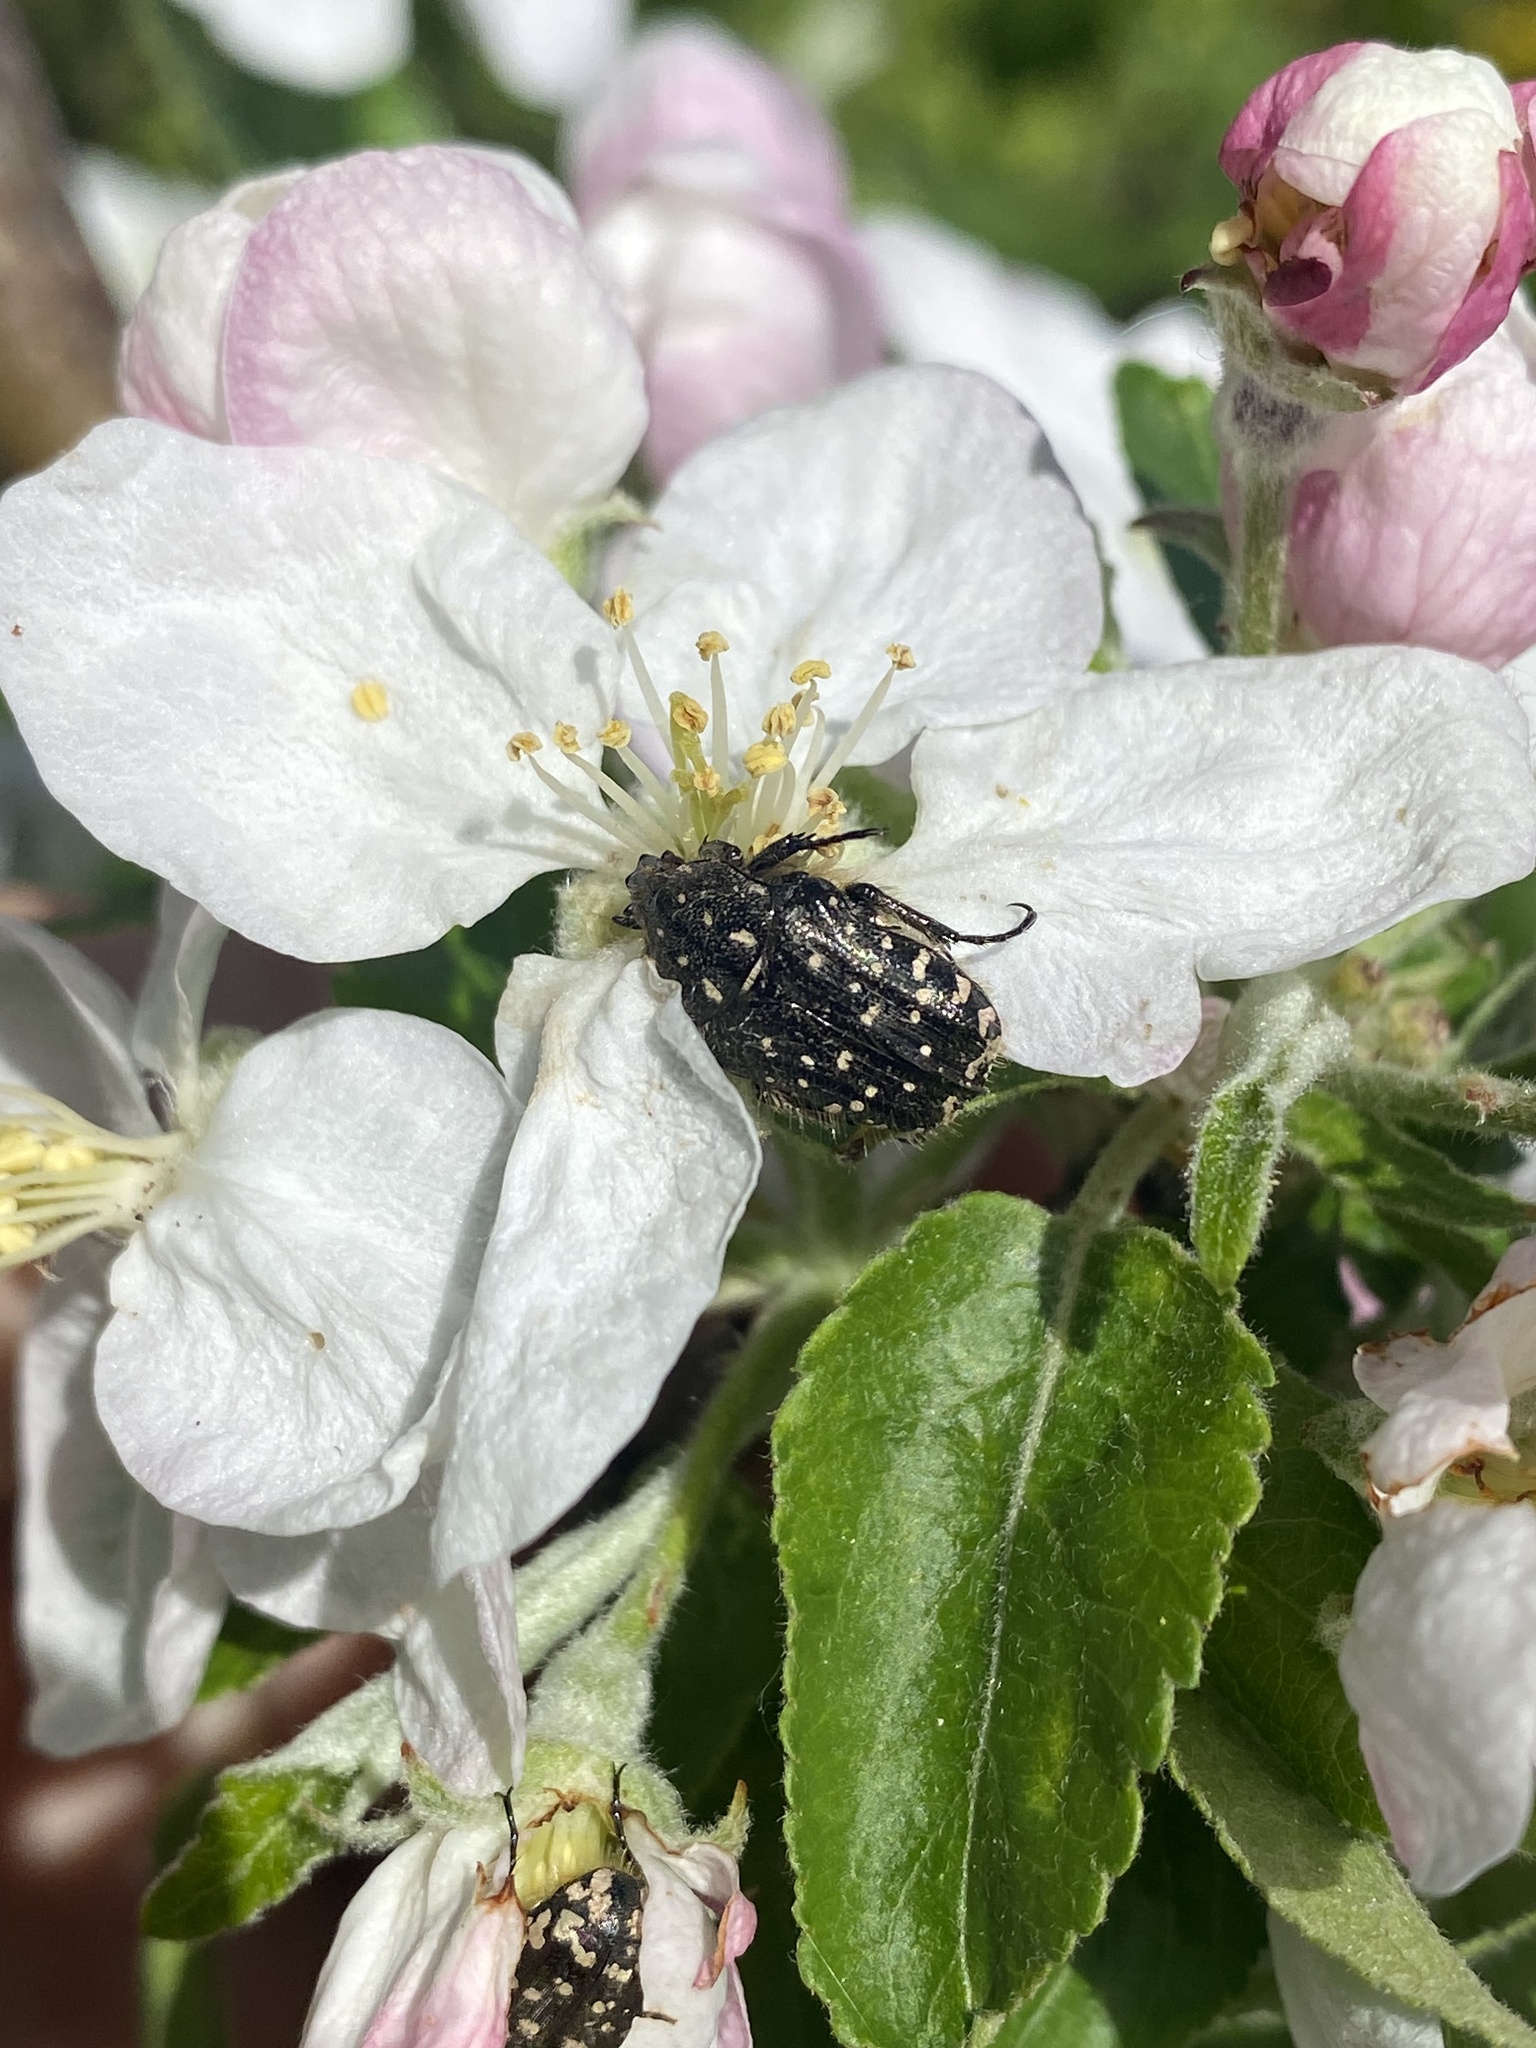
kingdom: Animalia
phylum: Arthropoda
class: Insecta
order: Coleoptera
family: Scarabaeidae
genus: Oxythyrea
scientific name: Oxythyrea funesta
